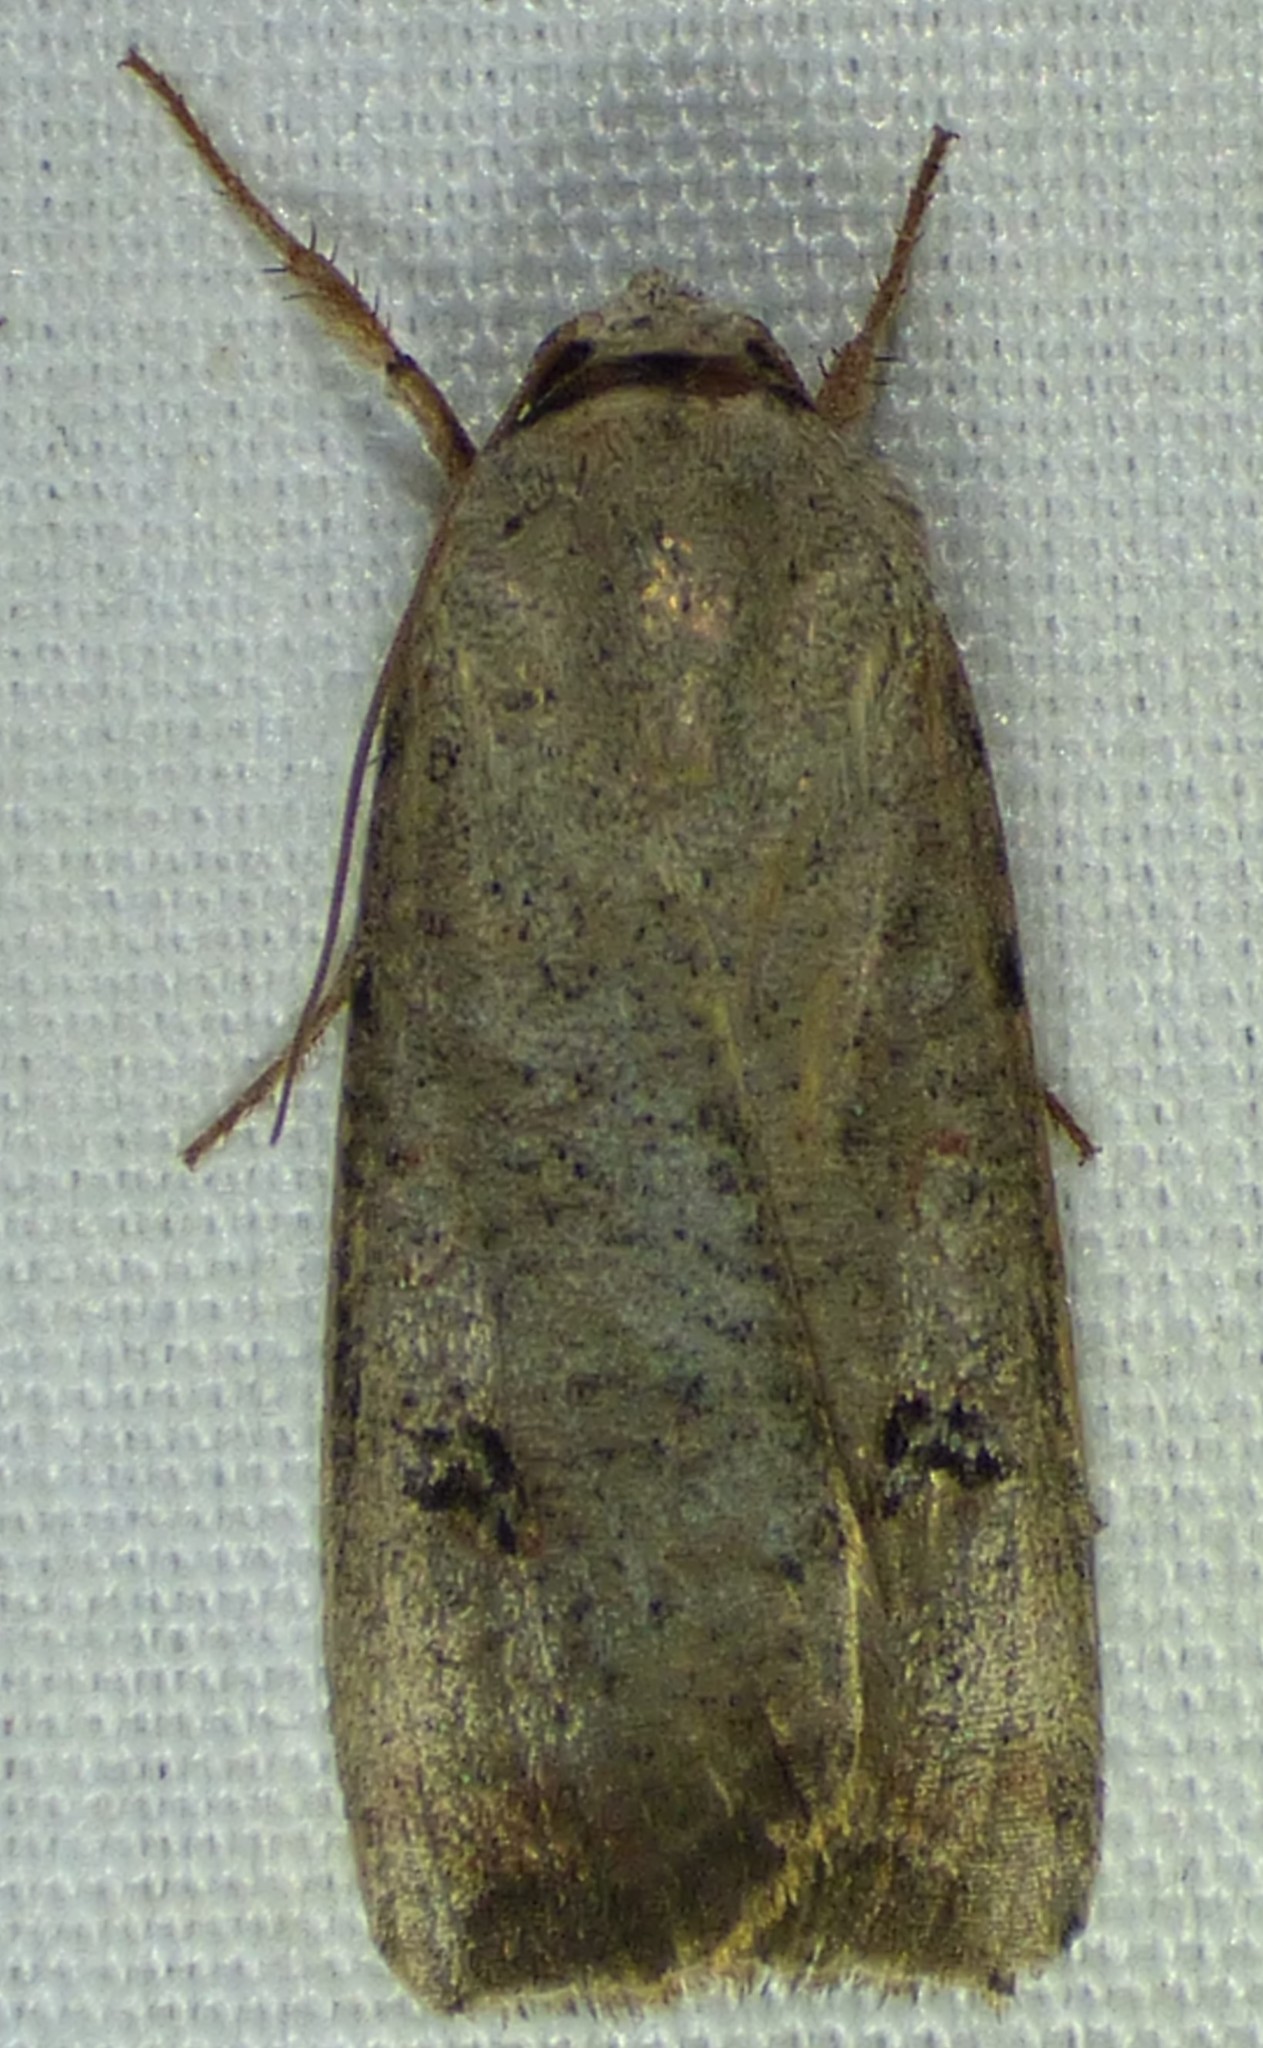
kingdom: Animalia
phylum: Arthropoda
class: Insecta
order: Lepidoptera
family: Noctuidae
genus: Anicla
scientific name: Anicla infecta
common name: Green cutworm
